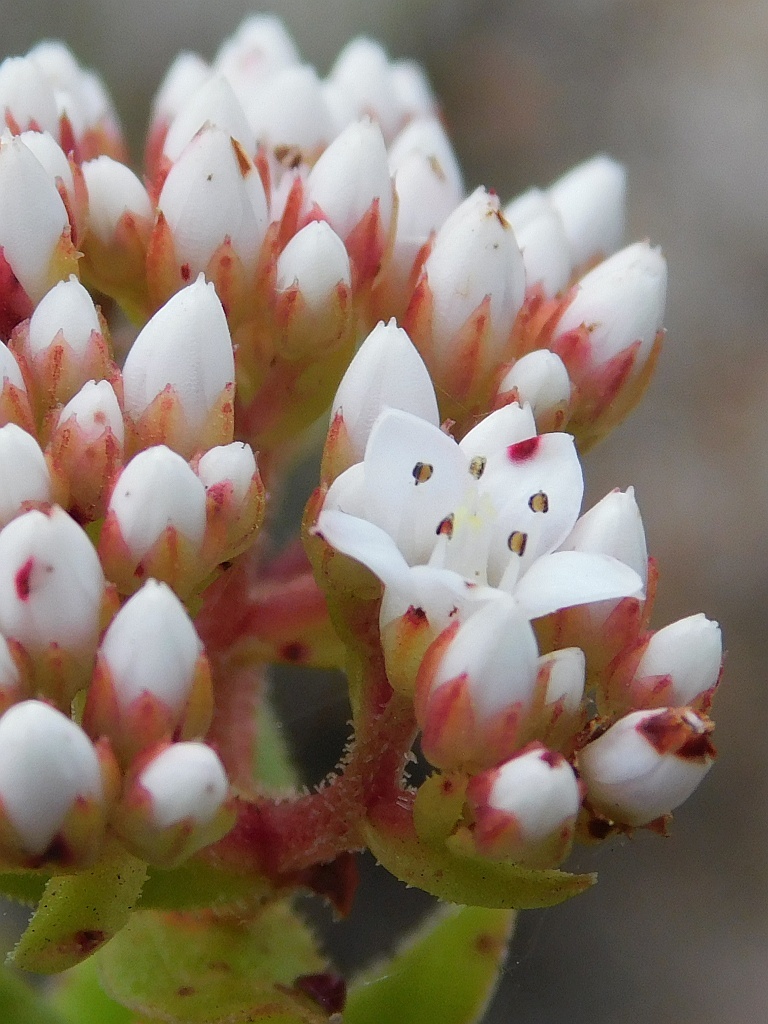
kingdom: Plantae
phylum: Tracheophyta
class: Magnoliopsida
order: Saxifragales
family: Crassulaceae
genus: Crassula
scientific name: Crassula undulata
